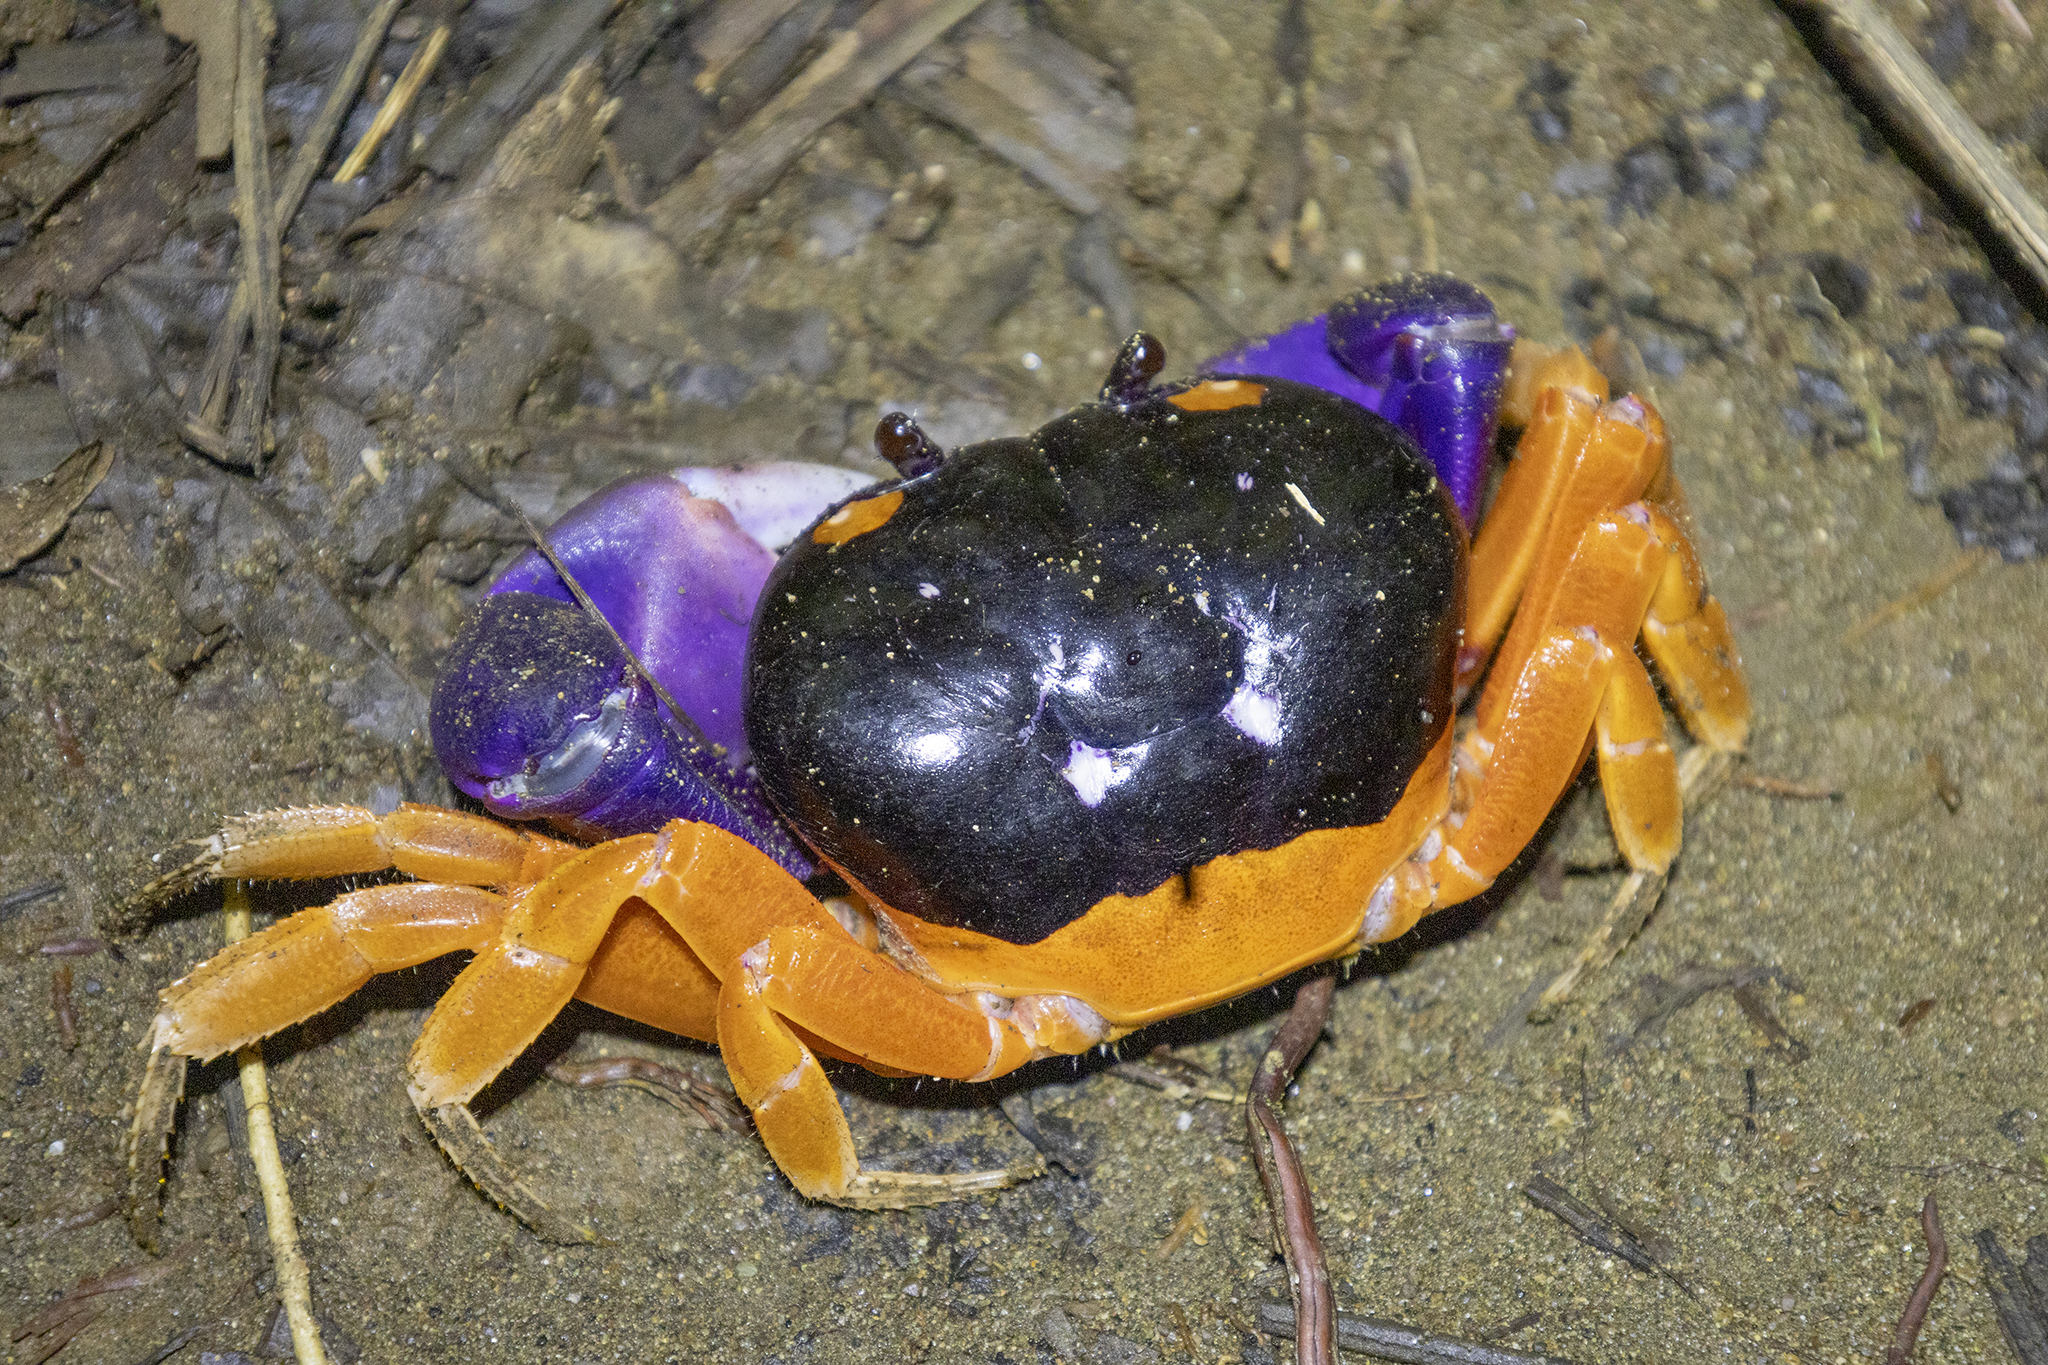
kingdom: Animalia
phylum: Arthropoda
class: Malacostraca
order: Decapoda
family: Gecarcinidae
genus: Gecarcinus
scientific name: Gecarcinus quadratus
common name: Halloween crab
